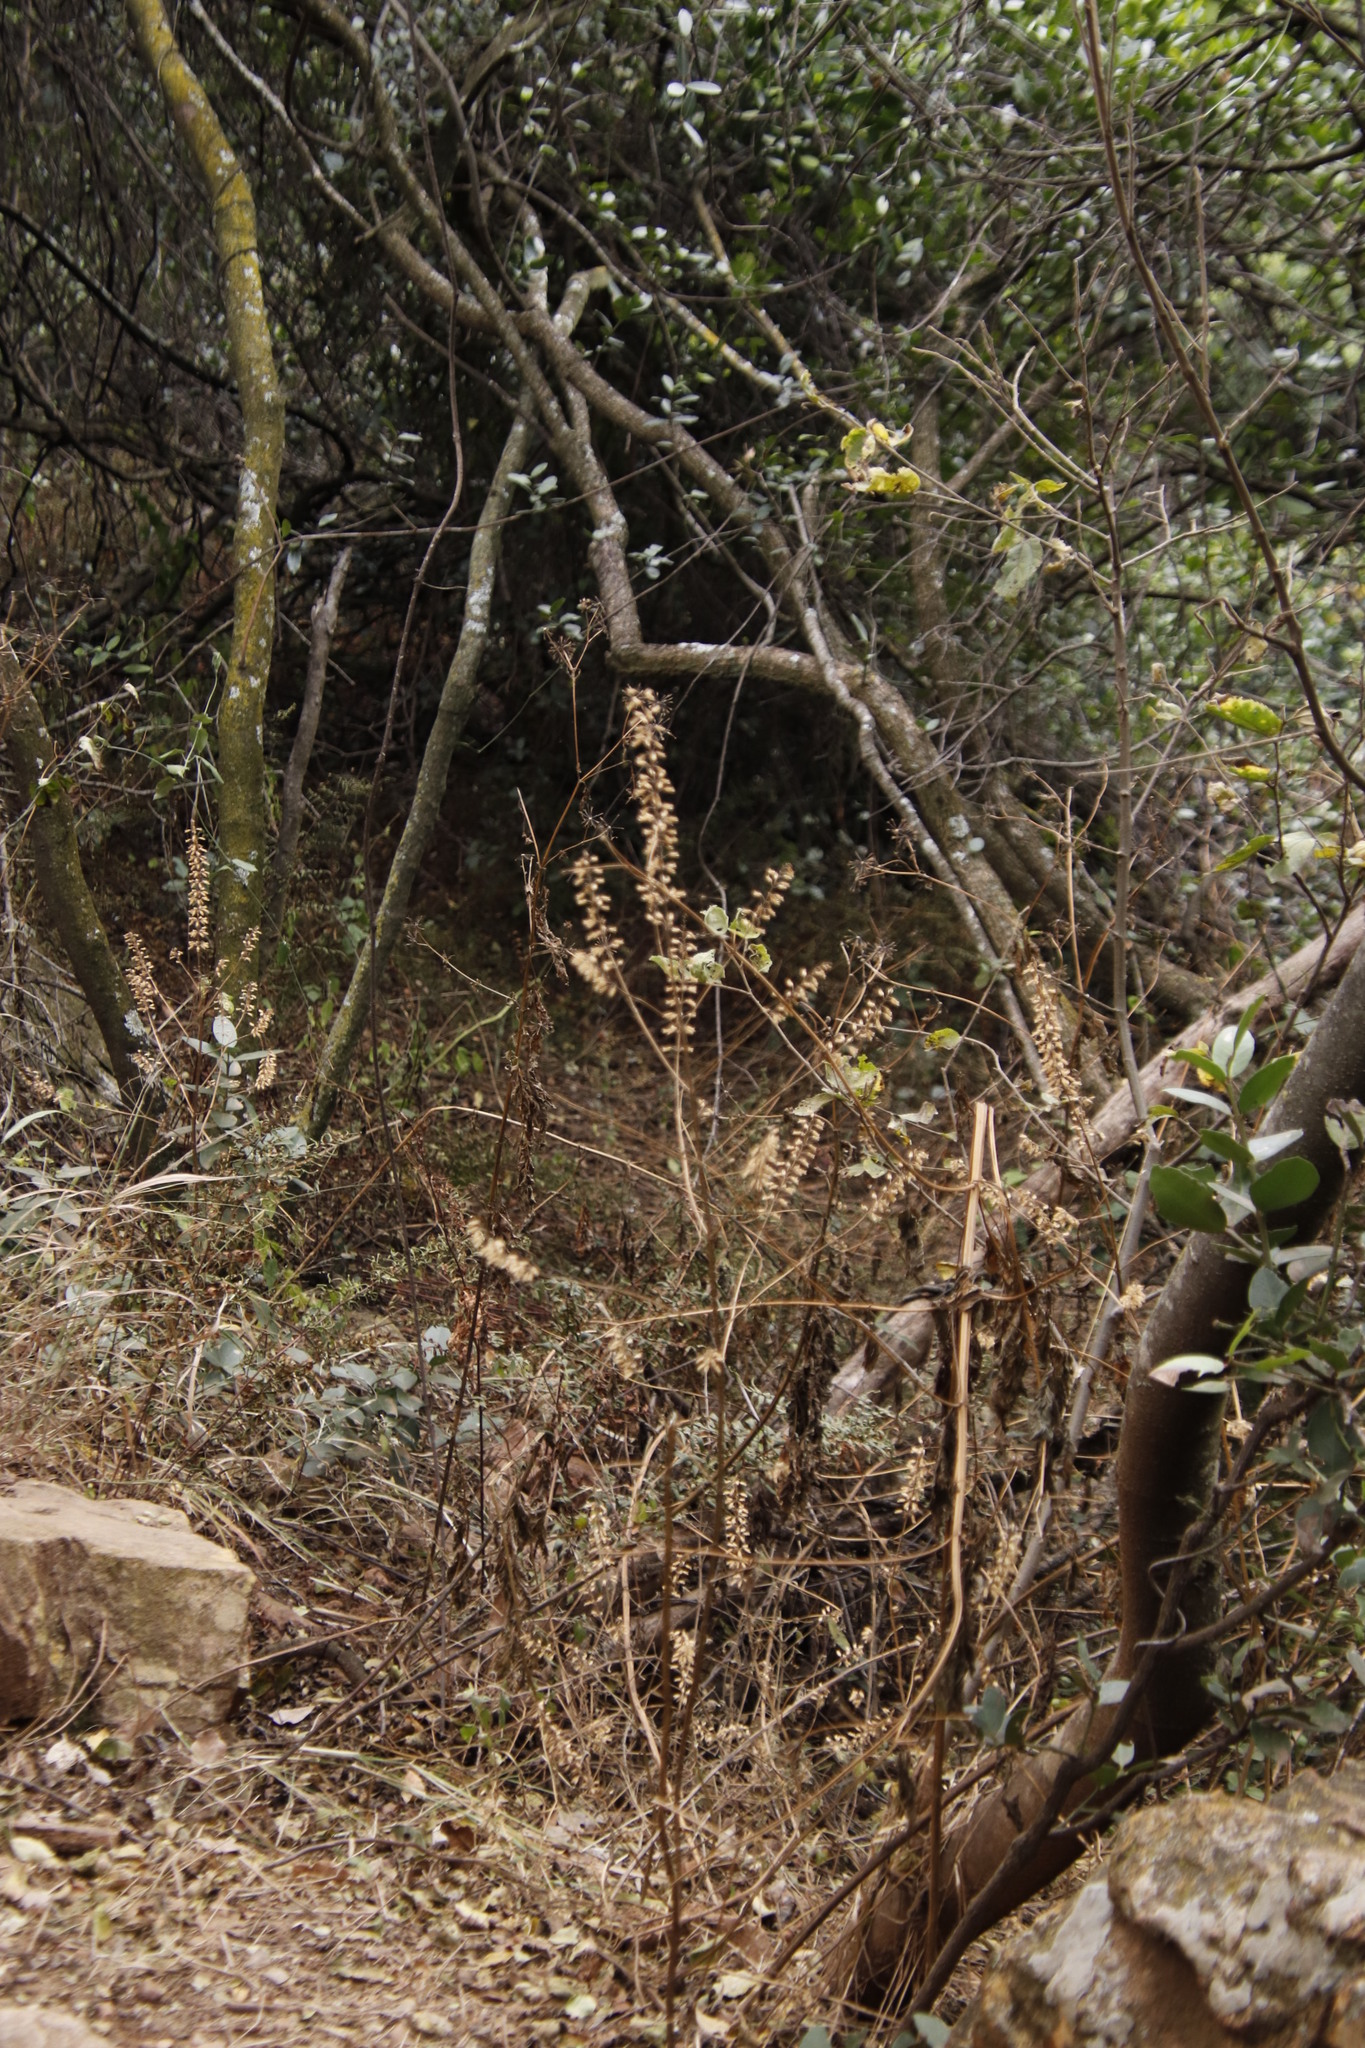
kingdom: Plantae
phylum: Tracheophyta
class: Magnoliopsida
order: Lamiales
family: Lamiaceae
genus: Salvia
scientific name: Salvia tiliifolia
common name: Lindenleaf sage
